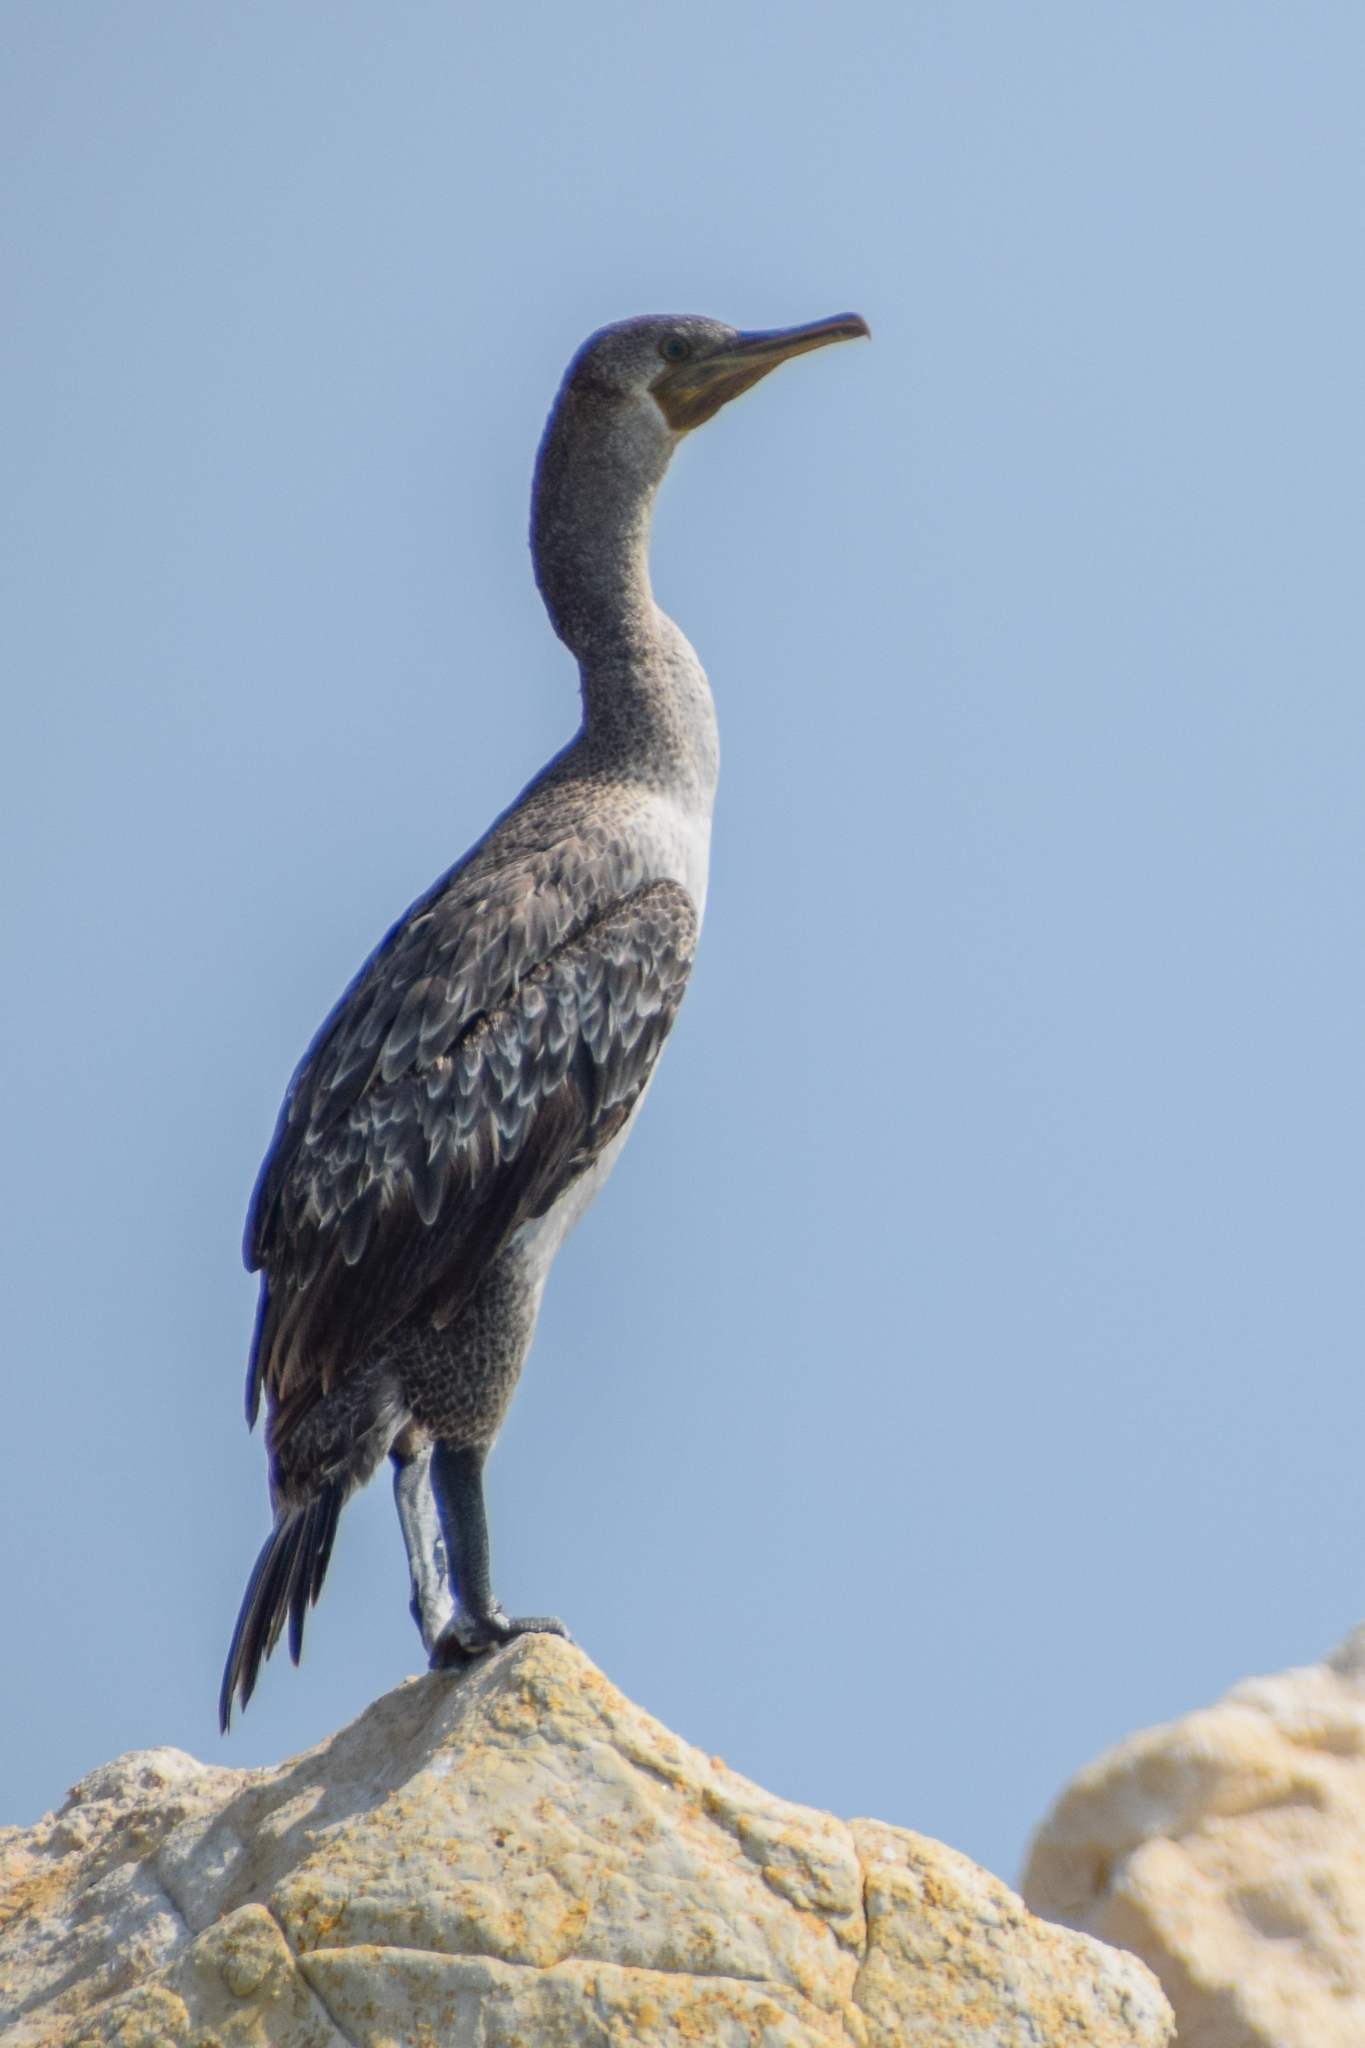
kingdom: Animalia
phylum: Chordata
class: Aves
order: Suliformes
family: Phalacrocoracidae
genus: Phalacrocorax
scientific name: Phalacrocorax nigrogularis
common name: Socotra cormorant
